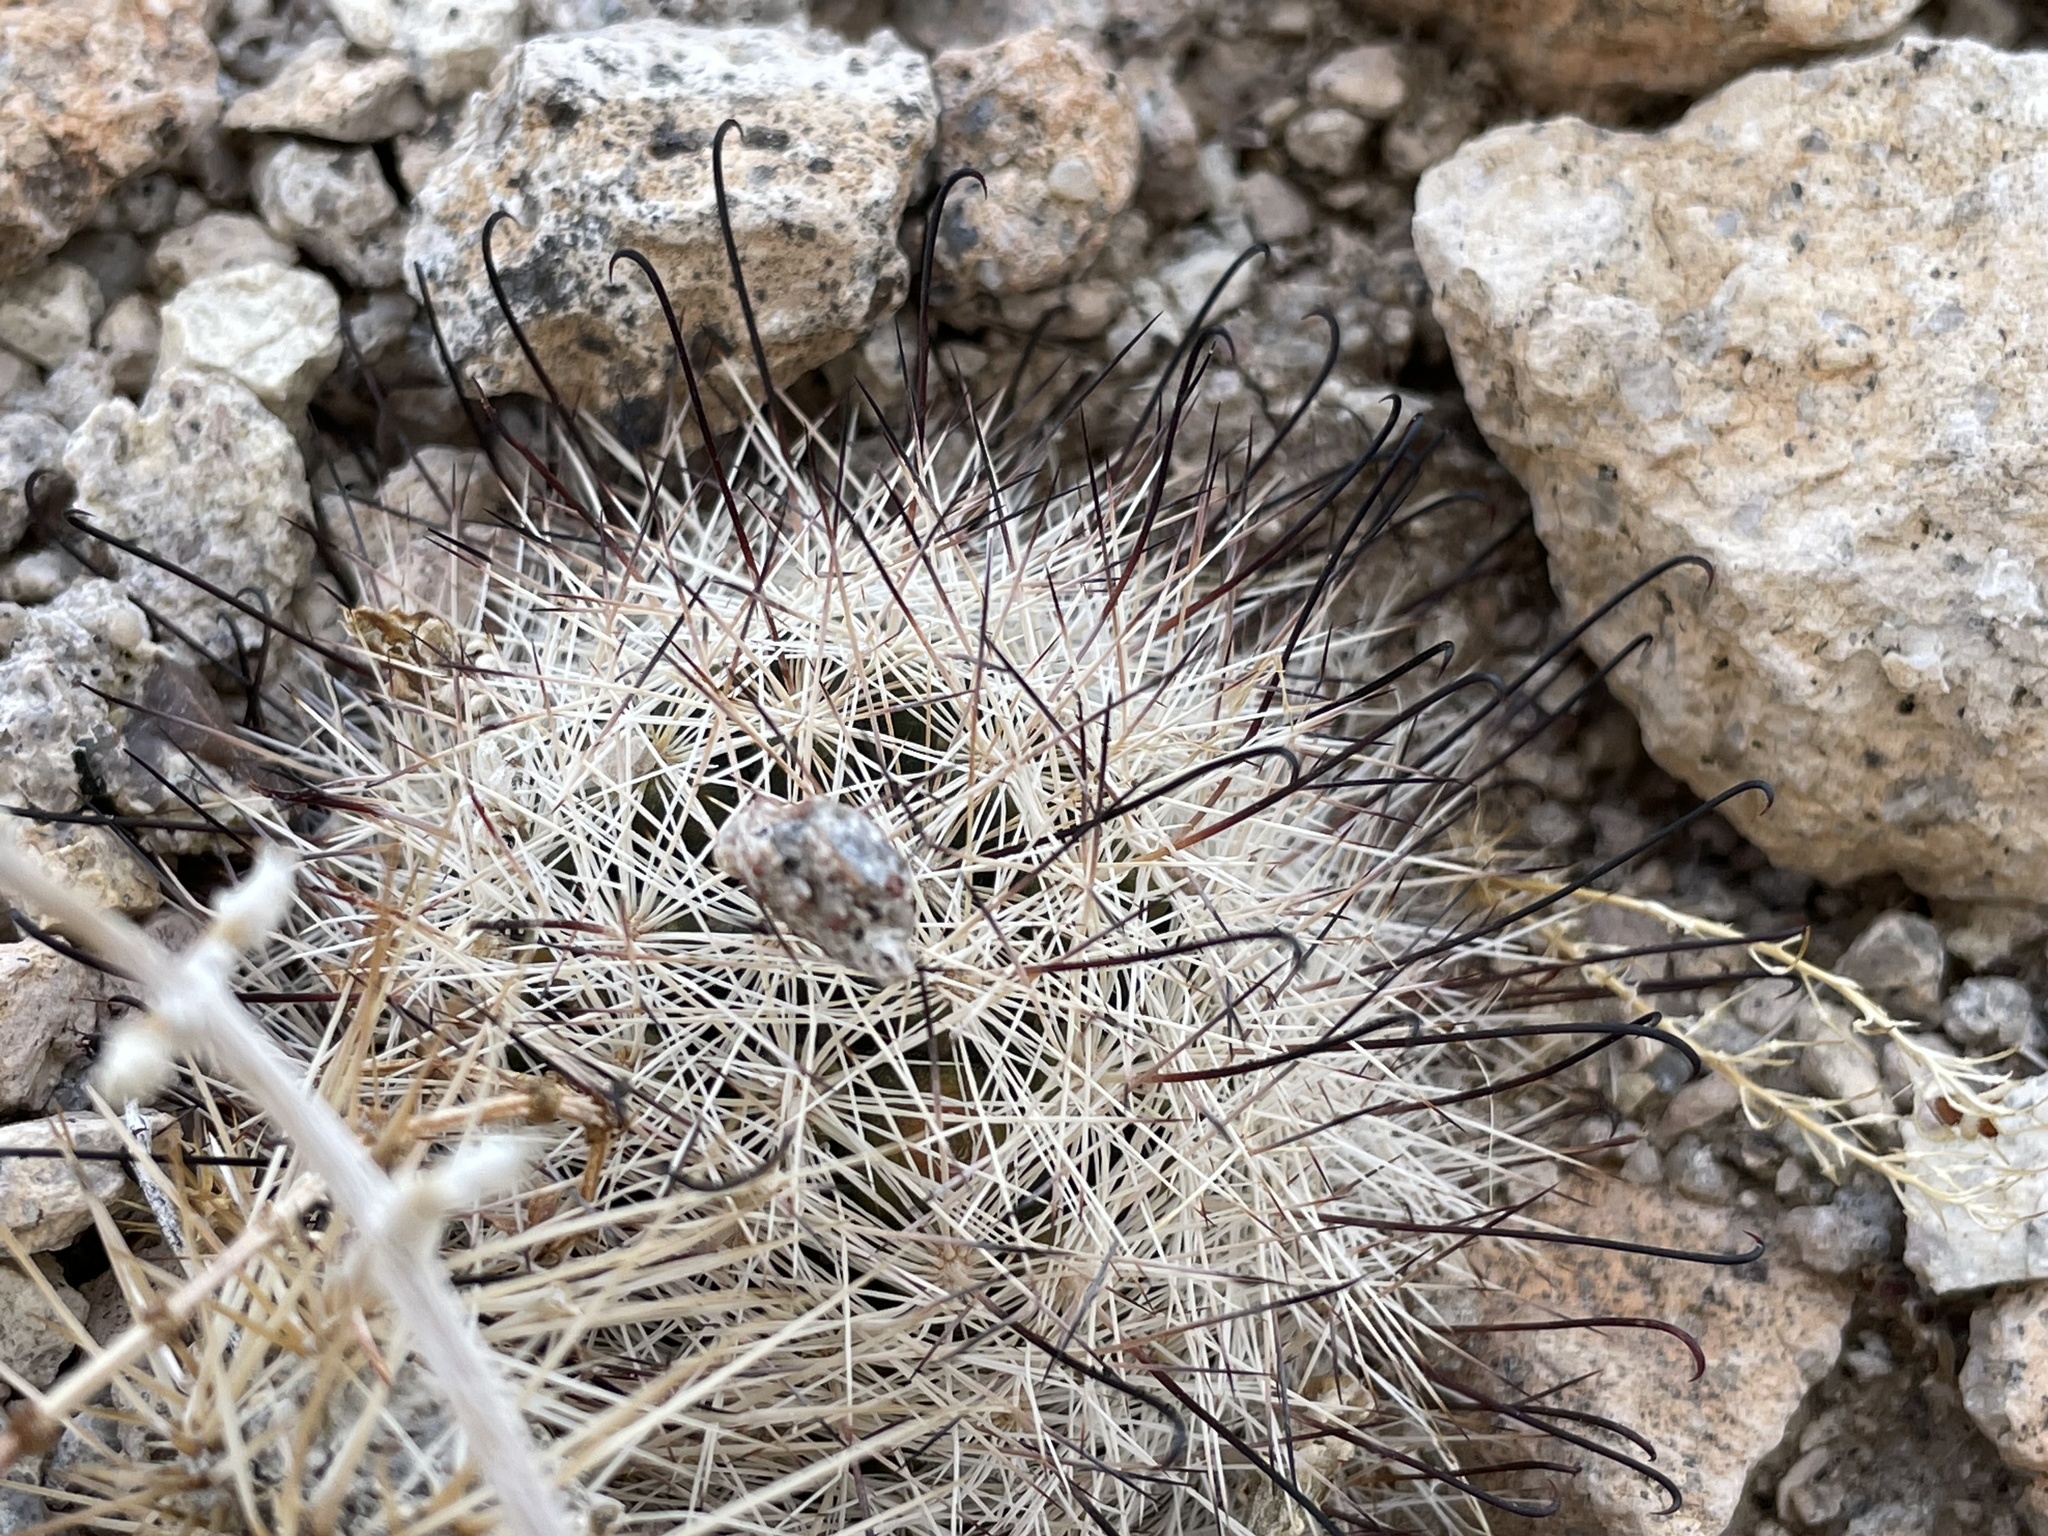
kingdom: Plantae
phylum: Tracheophyta
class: Magnoliopsida
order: Caryophyllales
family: Cactaceae
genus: Cochemiea
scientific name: Cochemiea tetrancistra
